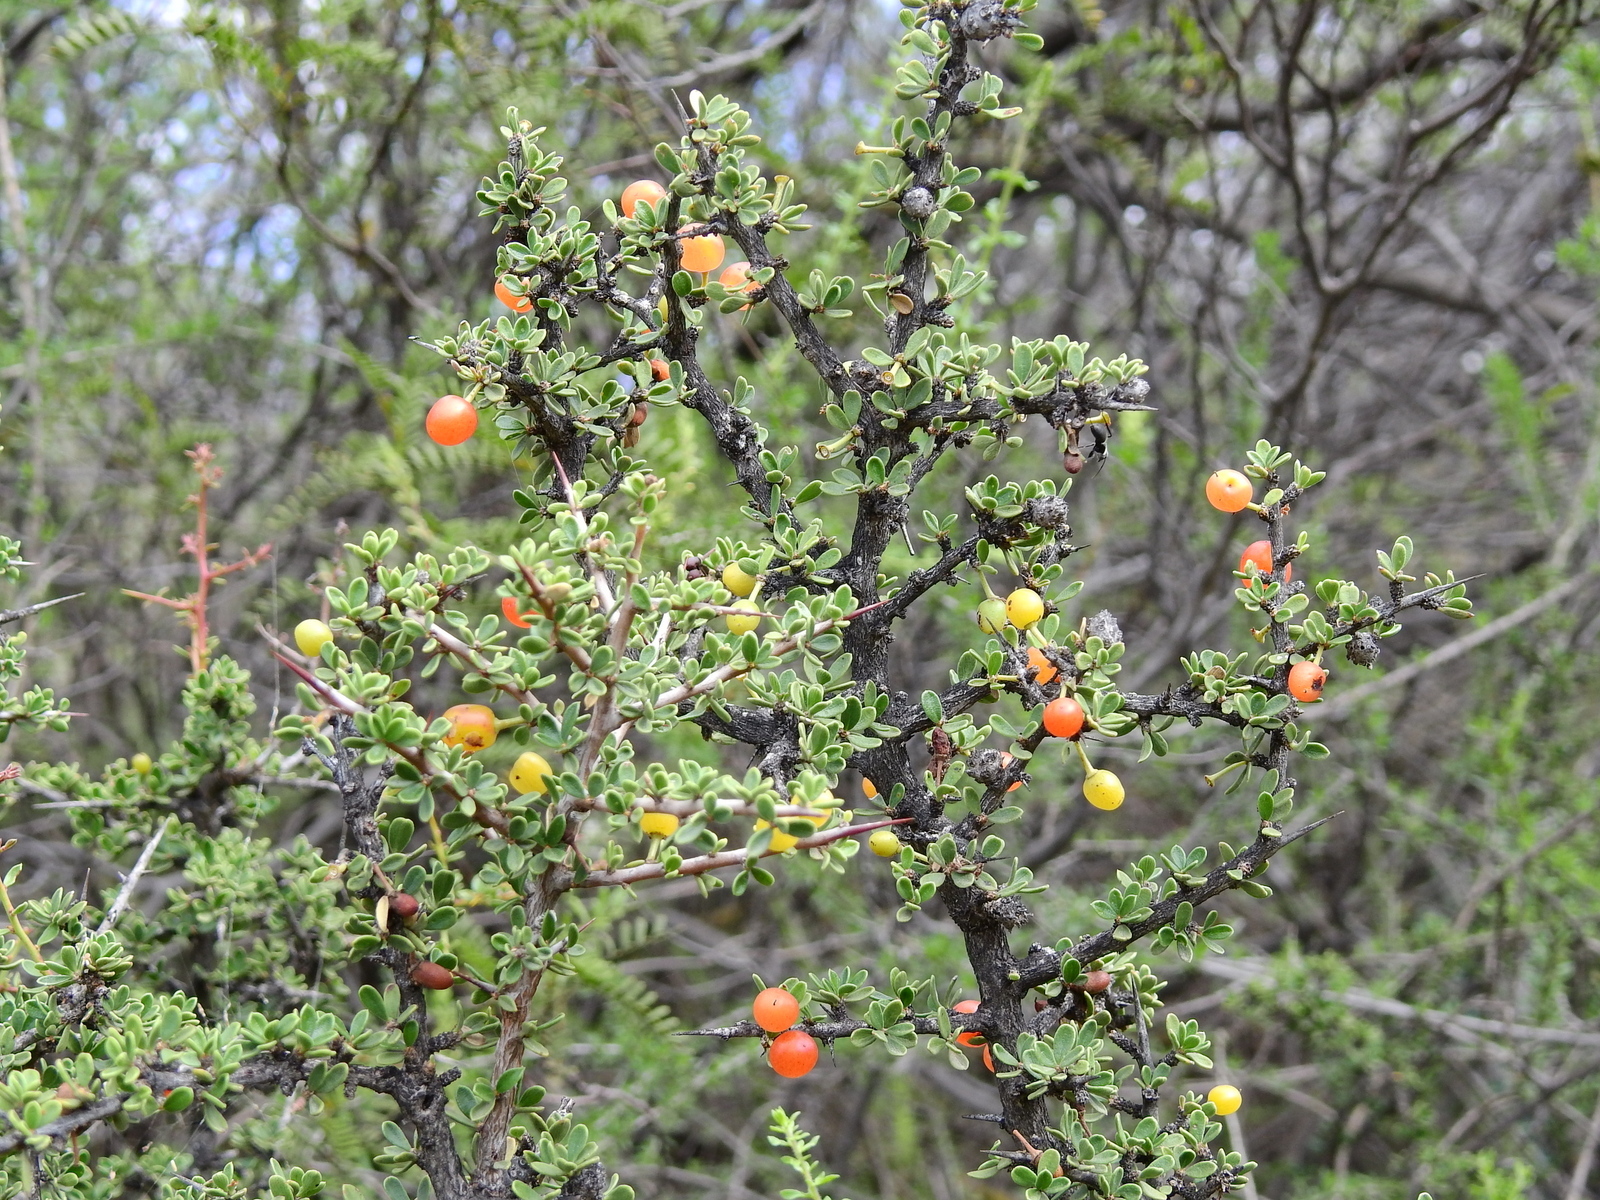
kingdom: Plantae
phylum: Tracheophyta
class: Magnoliopsida
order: Rosales
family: Rhamnaceae
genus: Condalia
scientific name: Condalia microphylla
